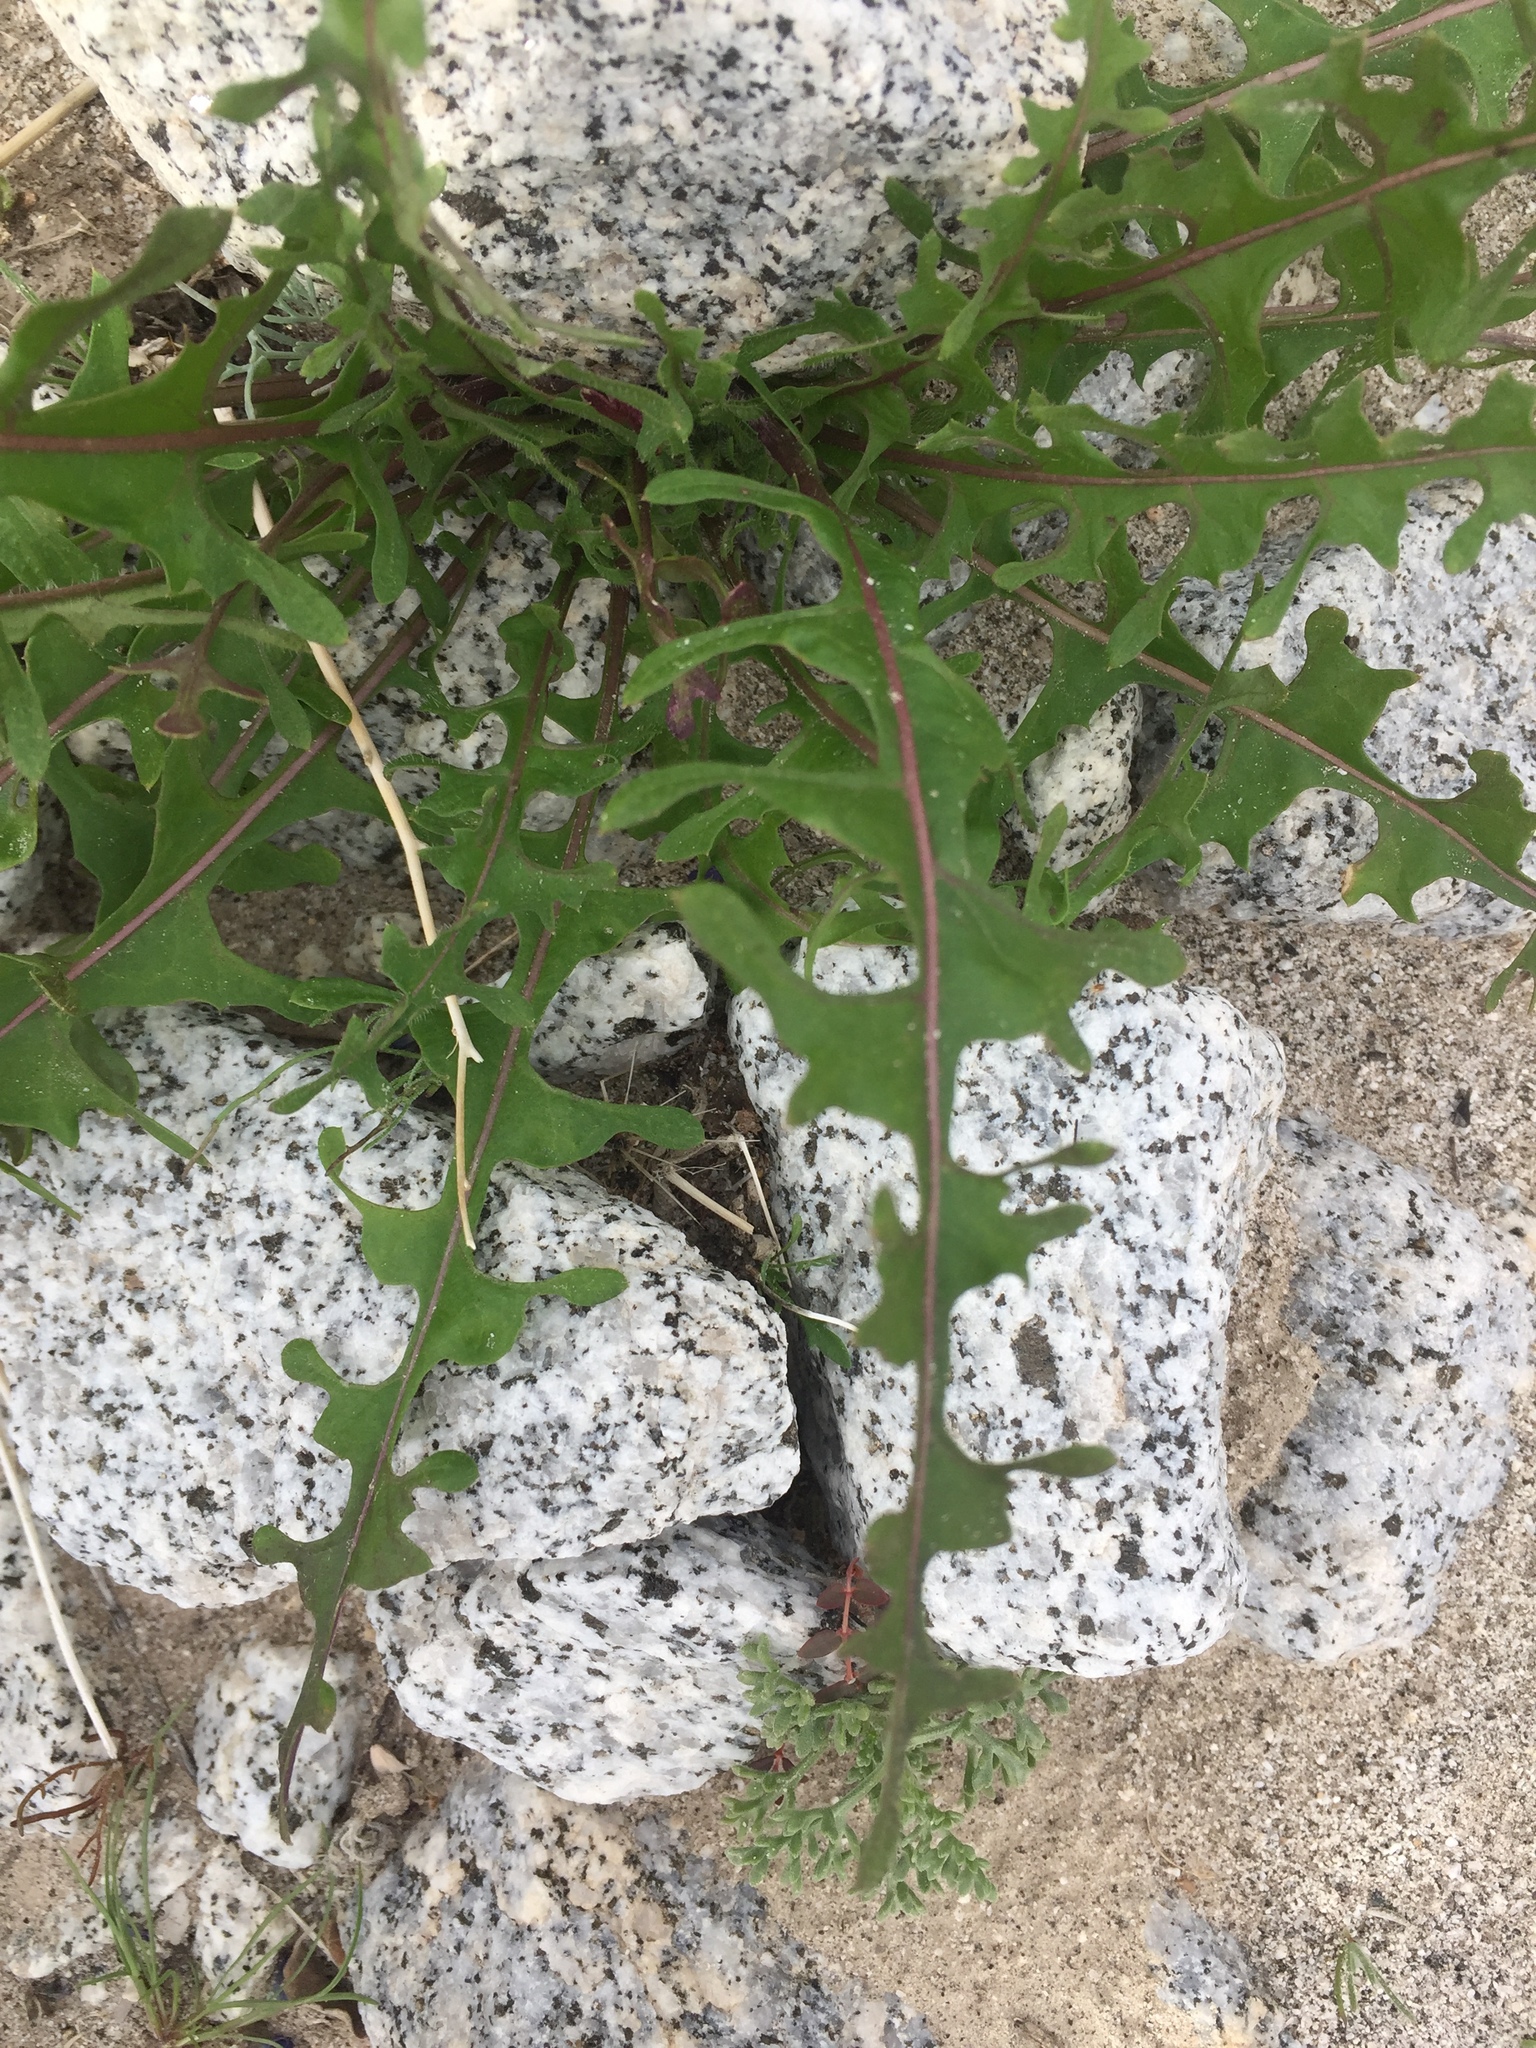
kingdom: Plantae
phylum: Tracheophyta
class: Magnoliopsida
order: Brassicales
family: Brassicaceae
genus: Streptanthus
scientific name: Streptanthus lasiophyllus
